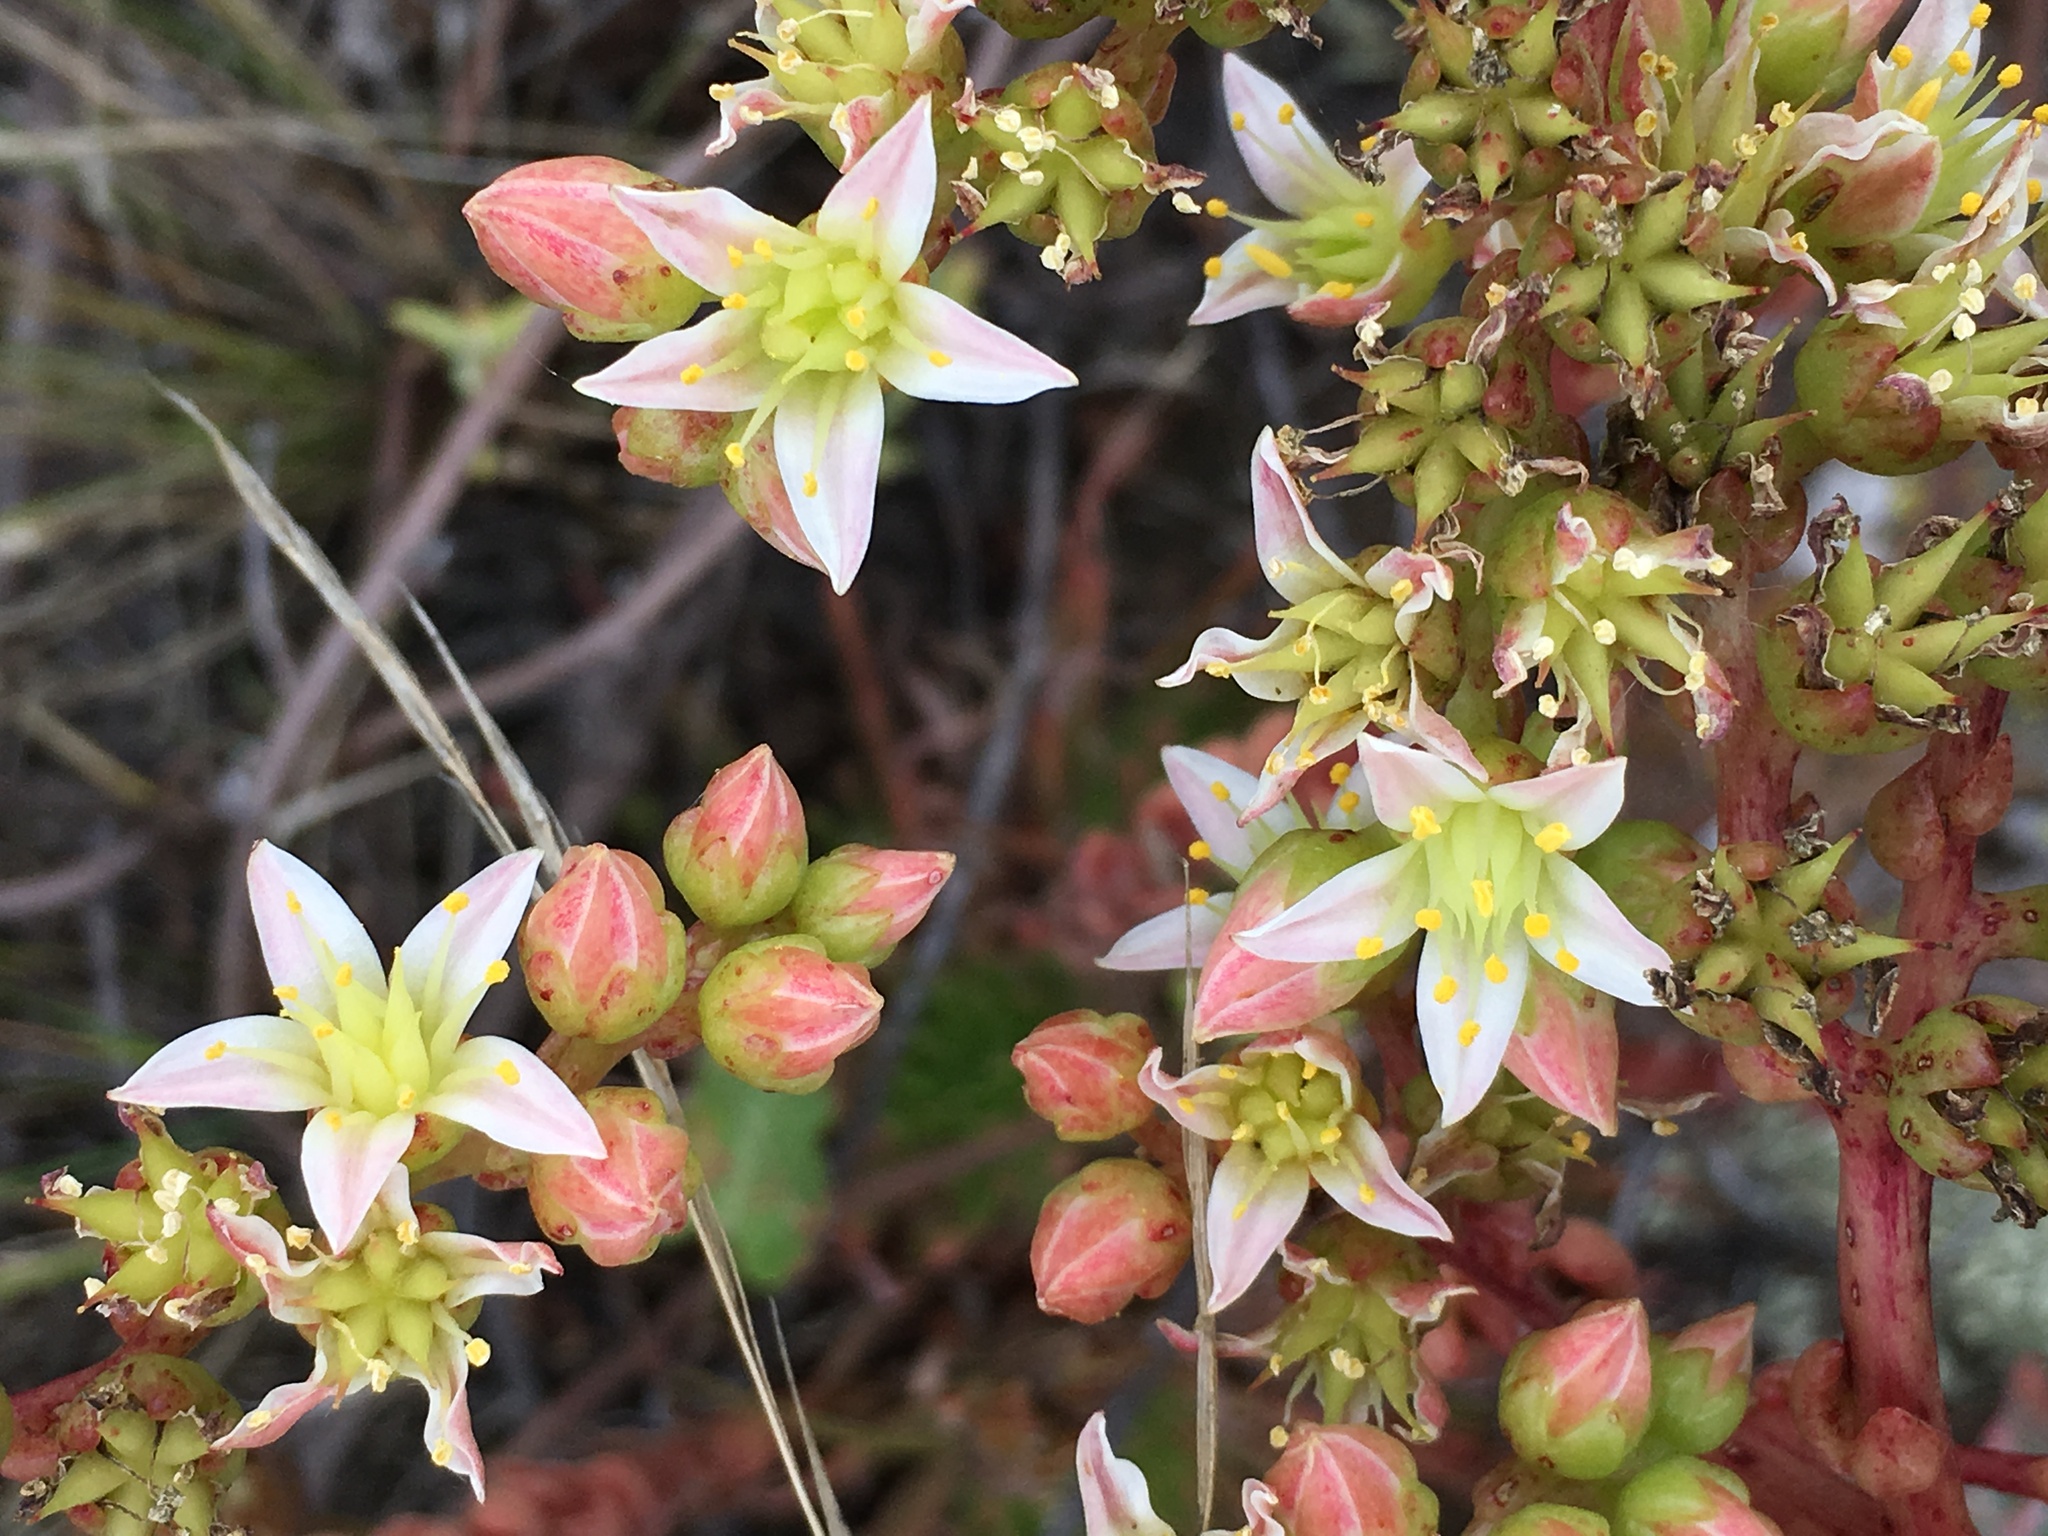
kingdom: Plantae
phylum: Tracheophyta
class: Magnoliopsida
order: Saxifragales
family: Crassulaceae
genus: Dudleya
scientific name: Dudleya virens
